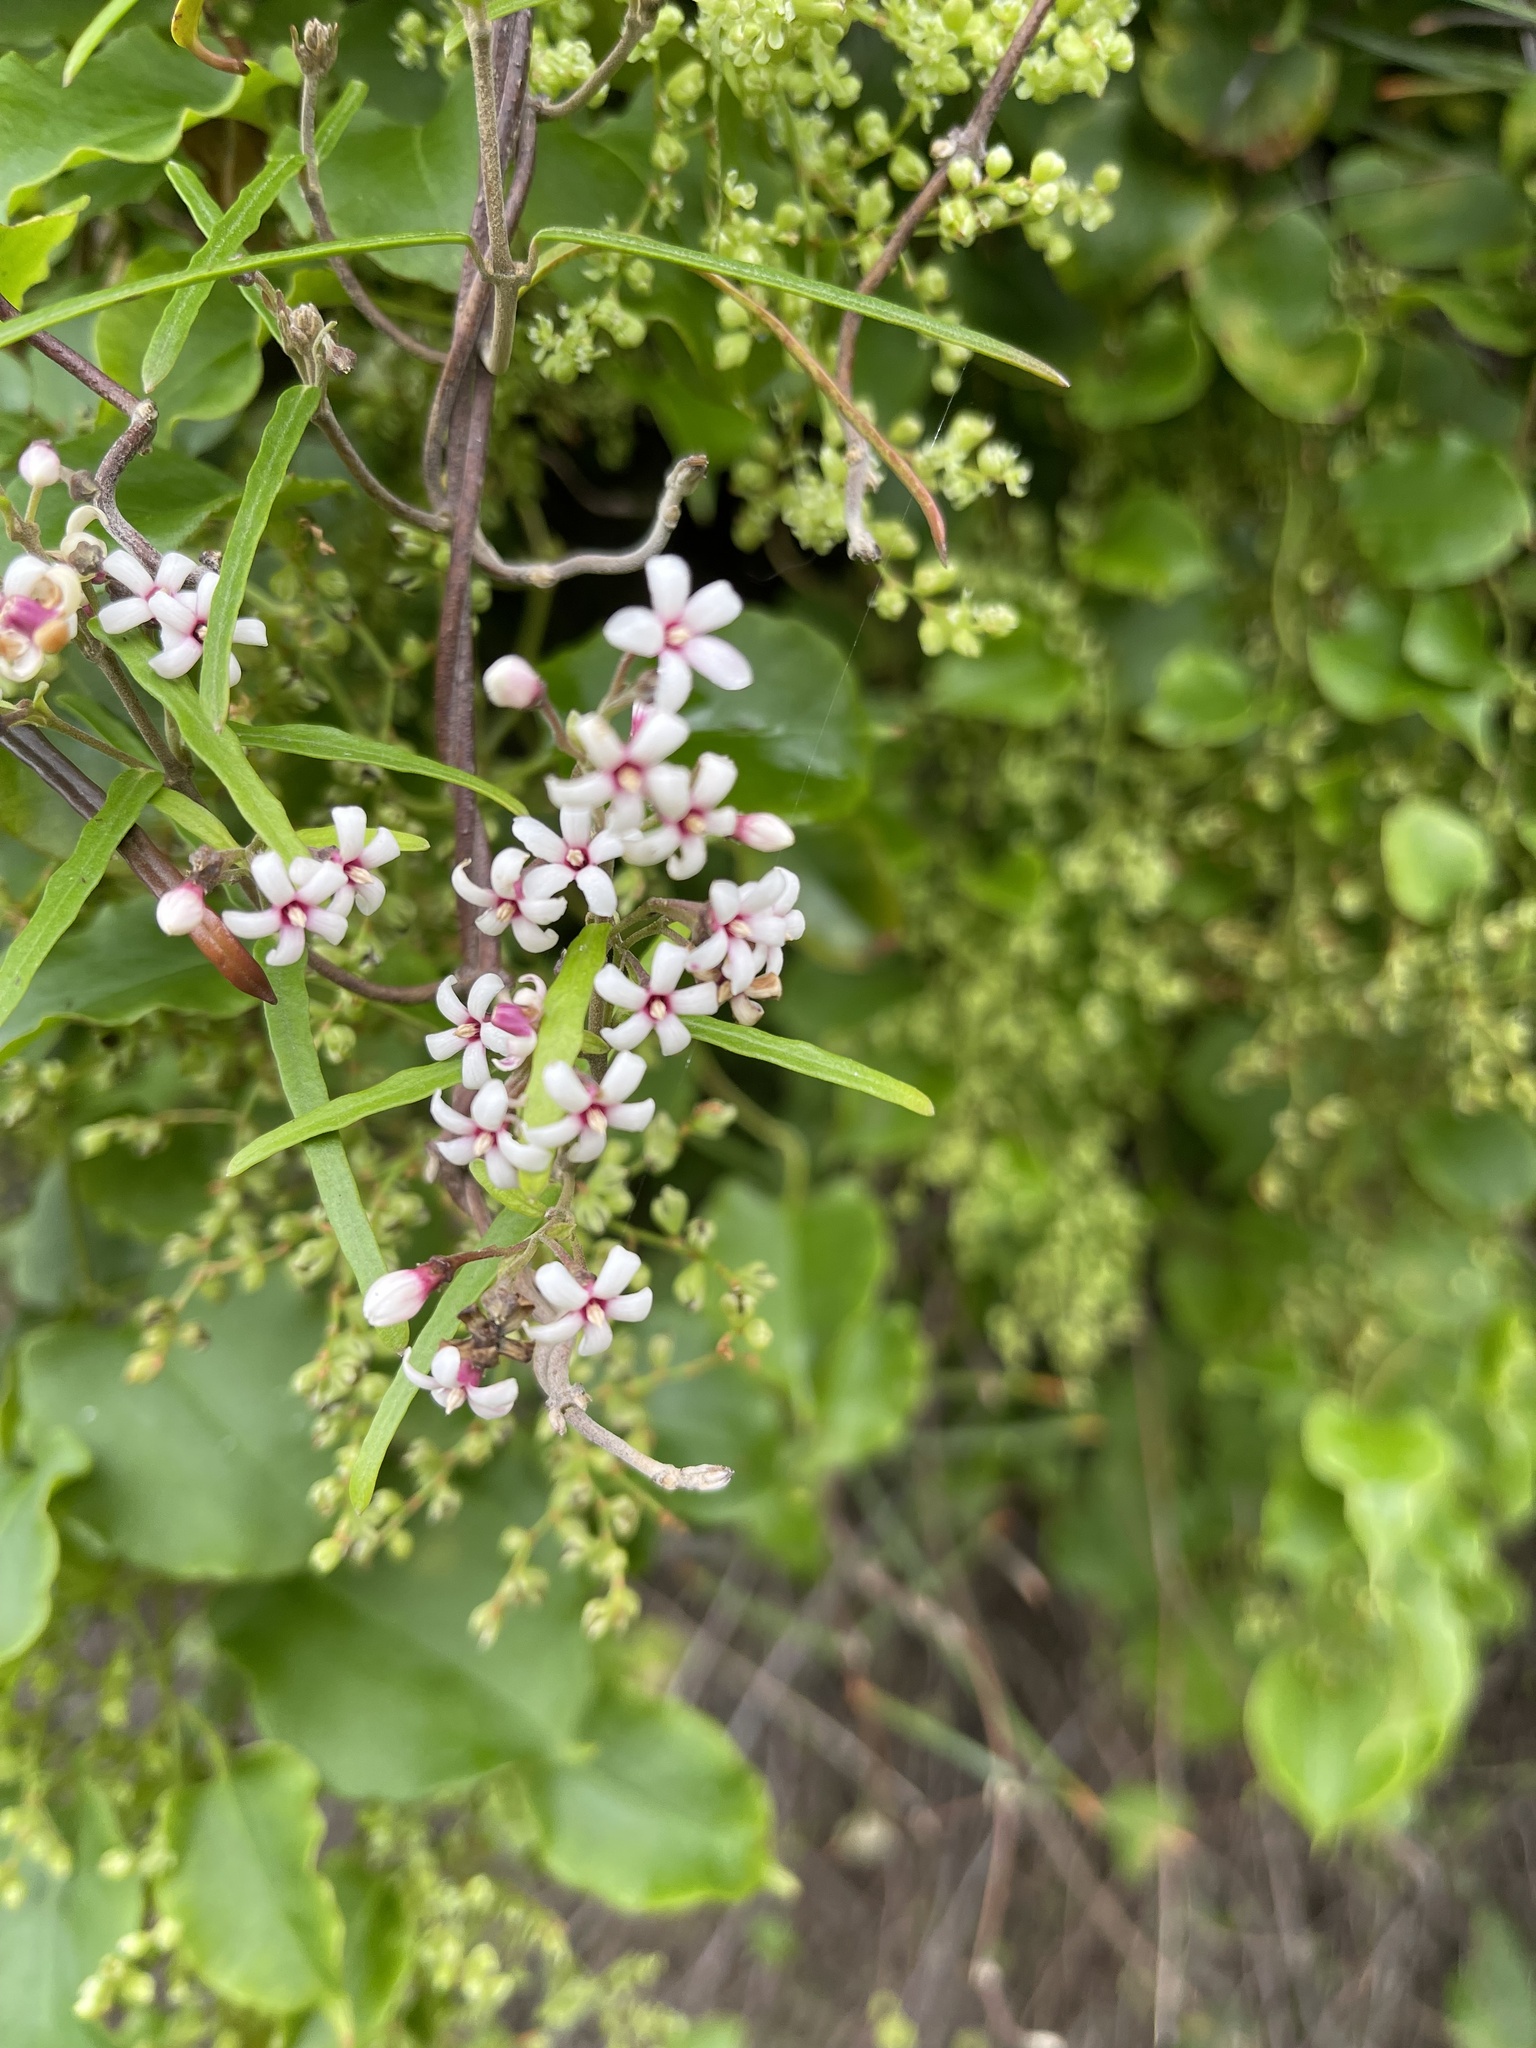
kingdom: Plantae
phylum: Tracheophyta
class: Magnoliopsida
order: Gentianales
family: Apocynaceae
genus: Parsonsia
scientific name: Parsonsia capsularis
